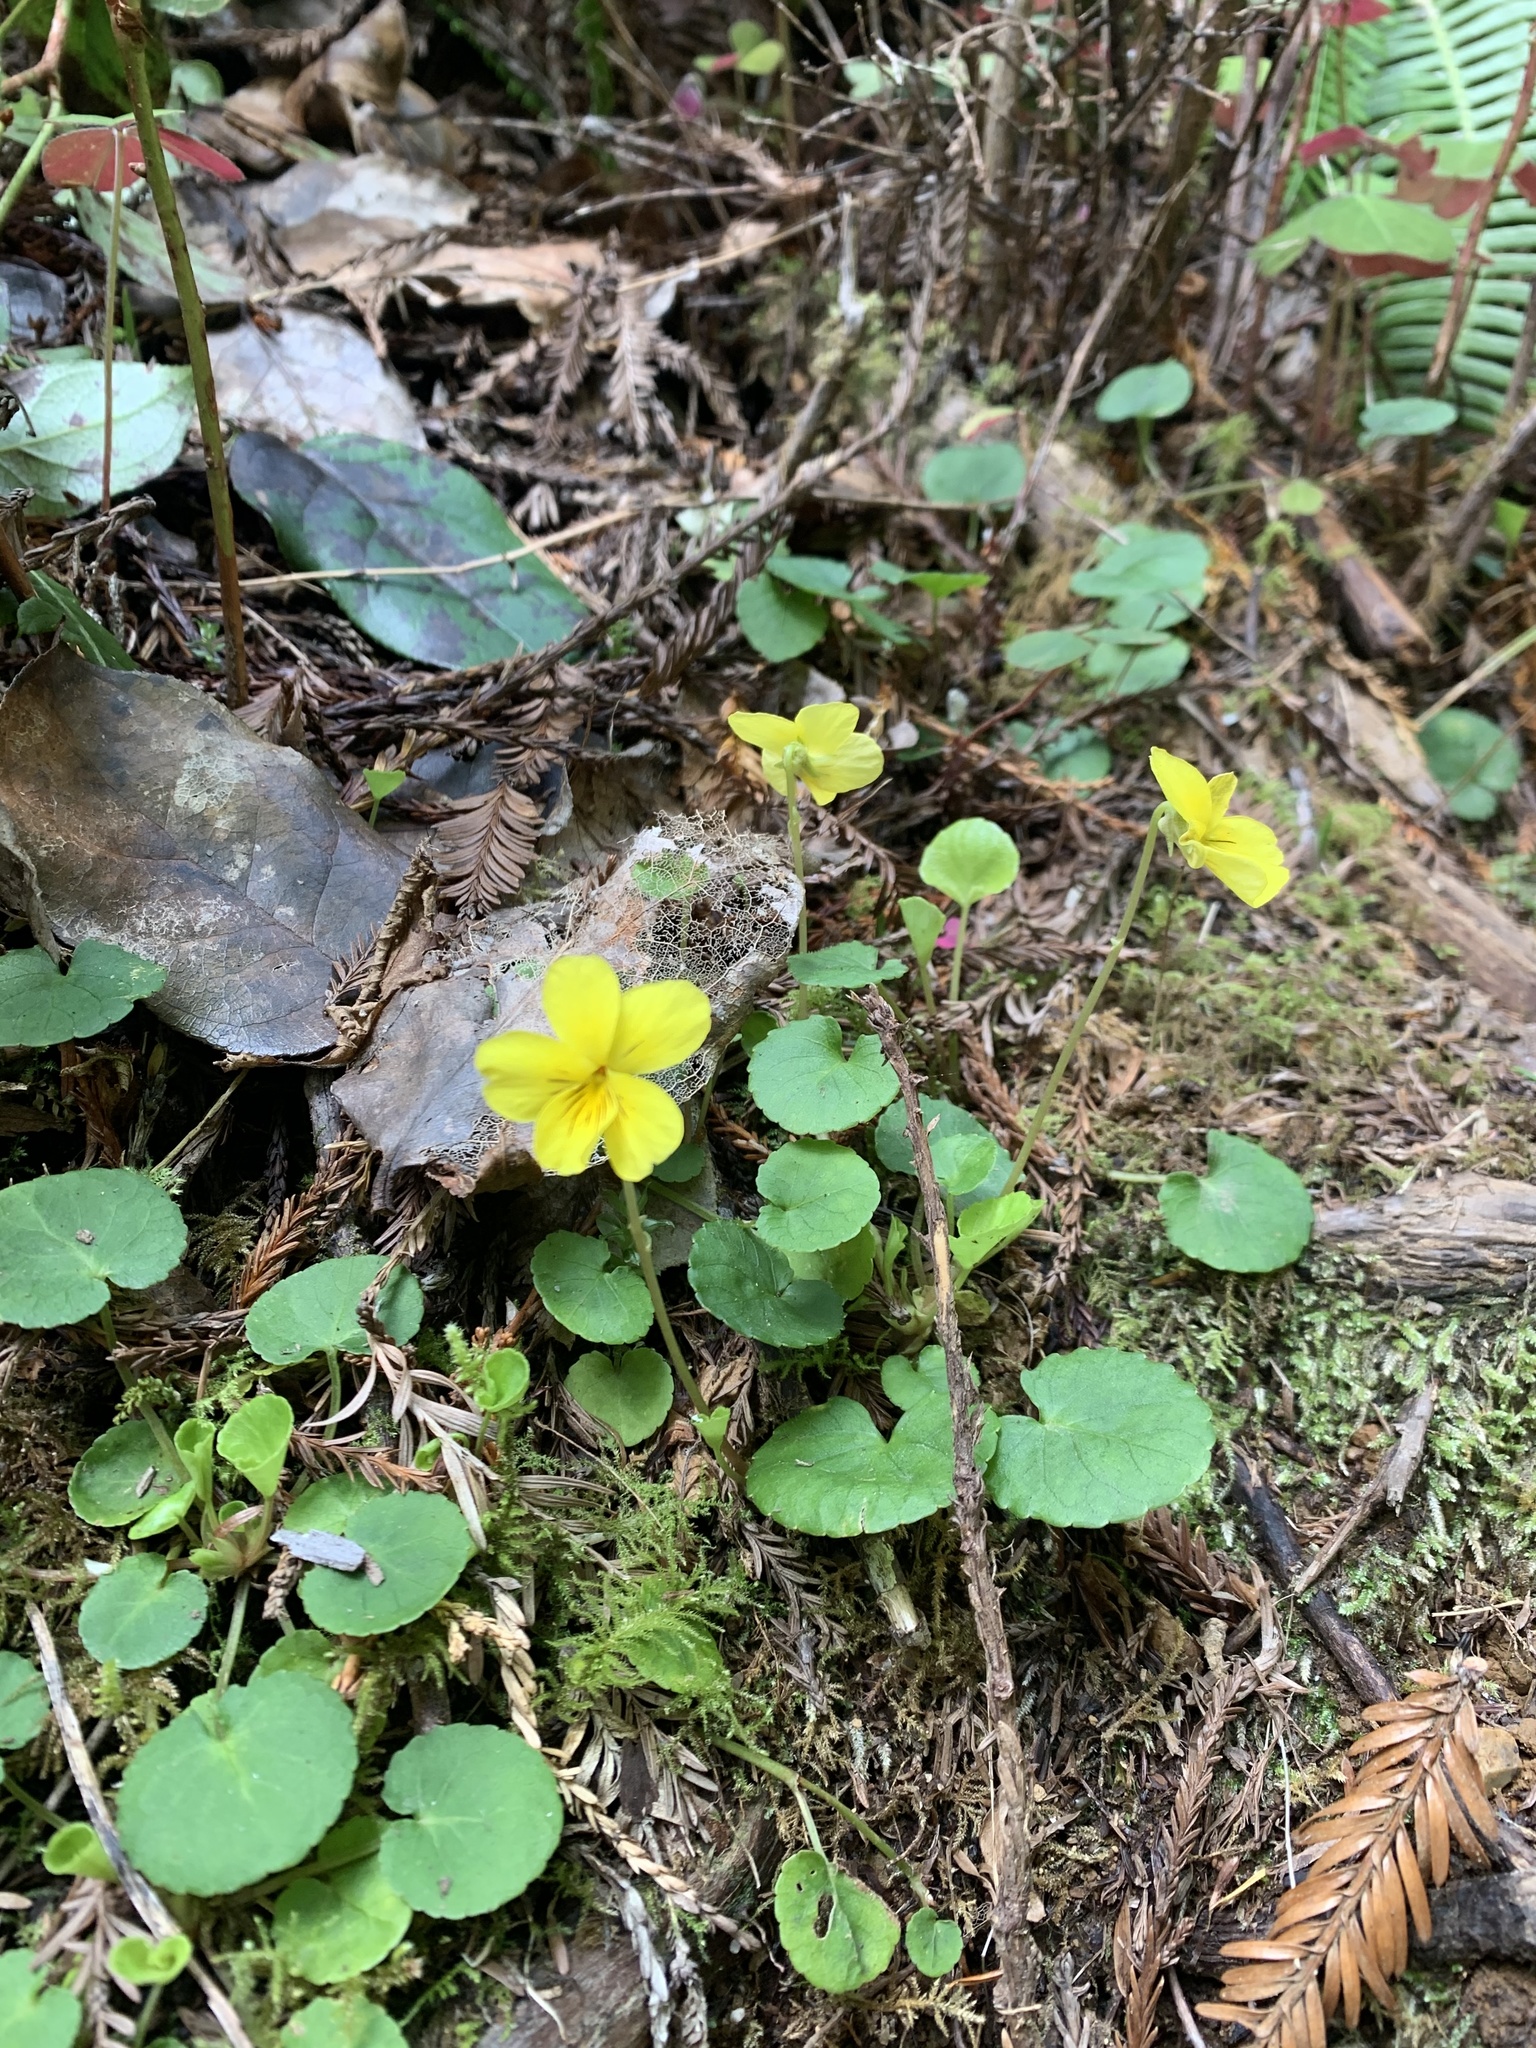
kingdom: Plantae
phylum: Tracheophyta
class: Magnoliopsida
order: Malpighiales
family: Violaceae
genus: Viola
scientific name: Viola sempervirens
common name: Evergreen violet
